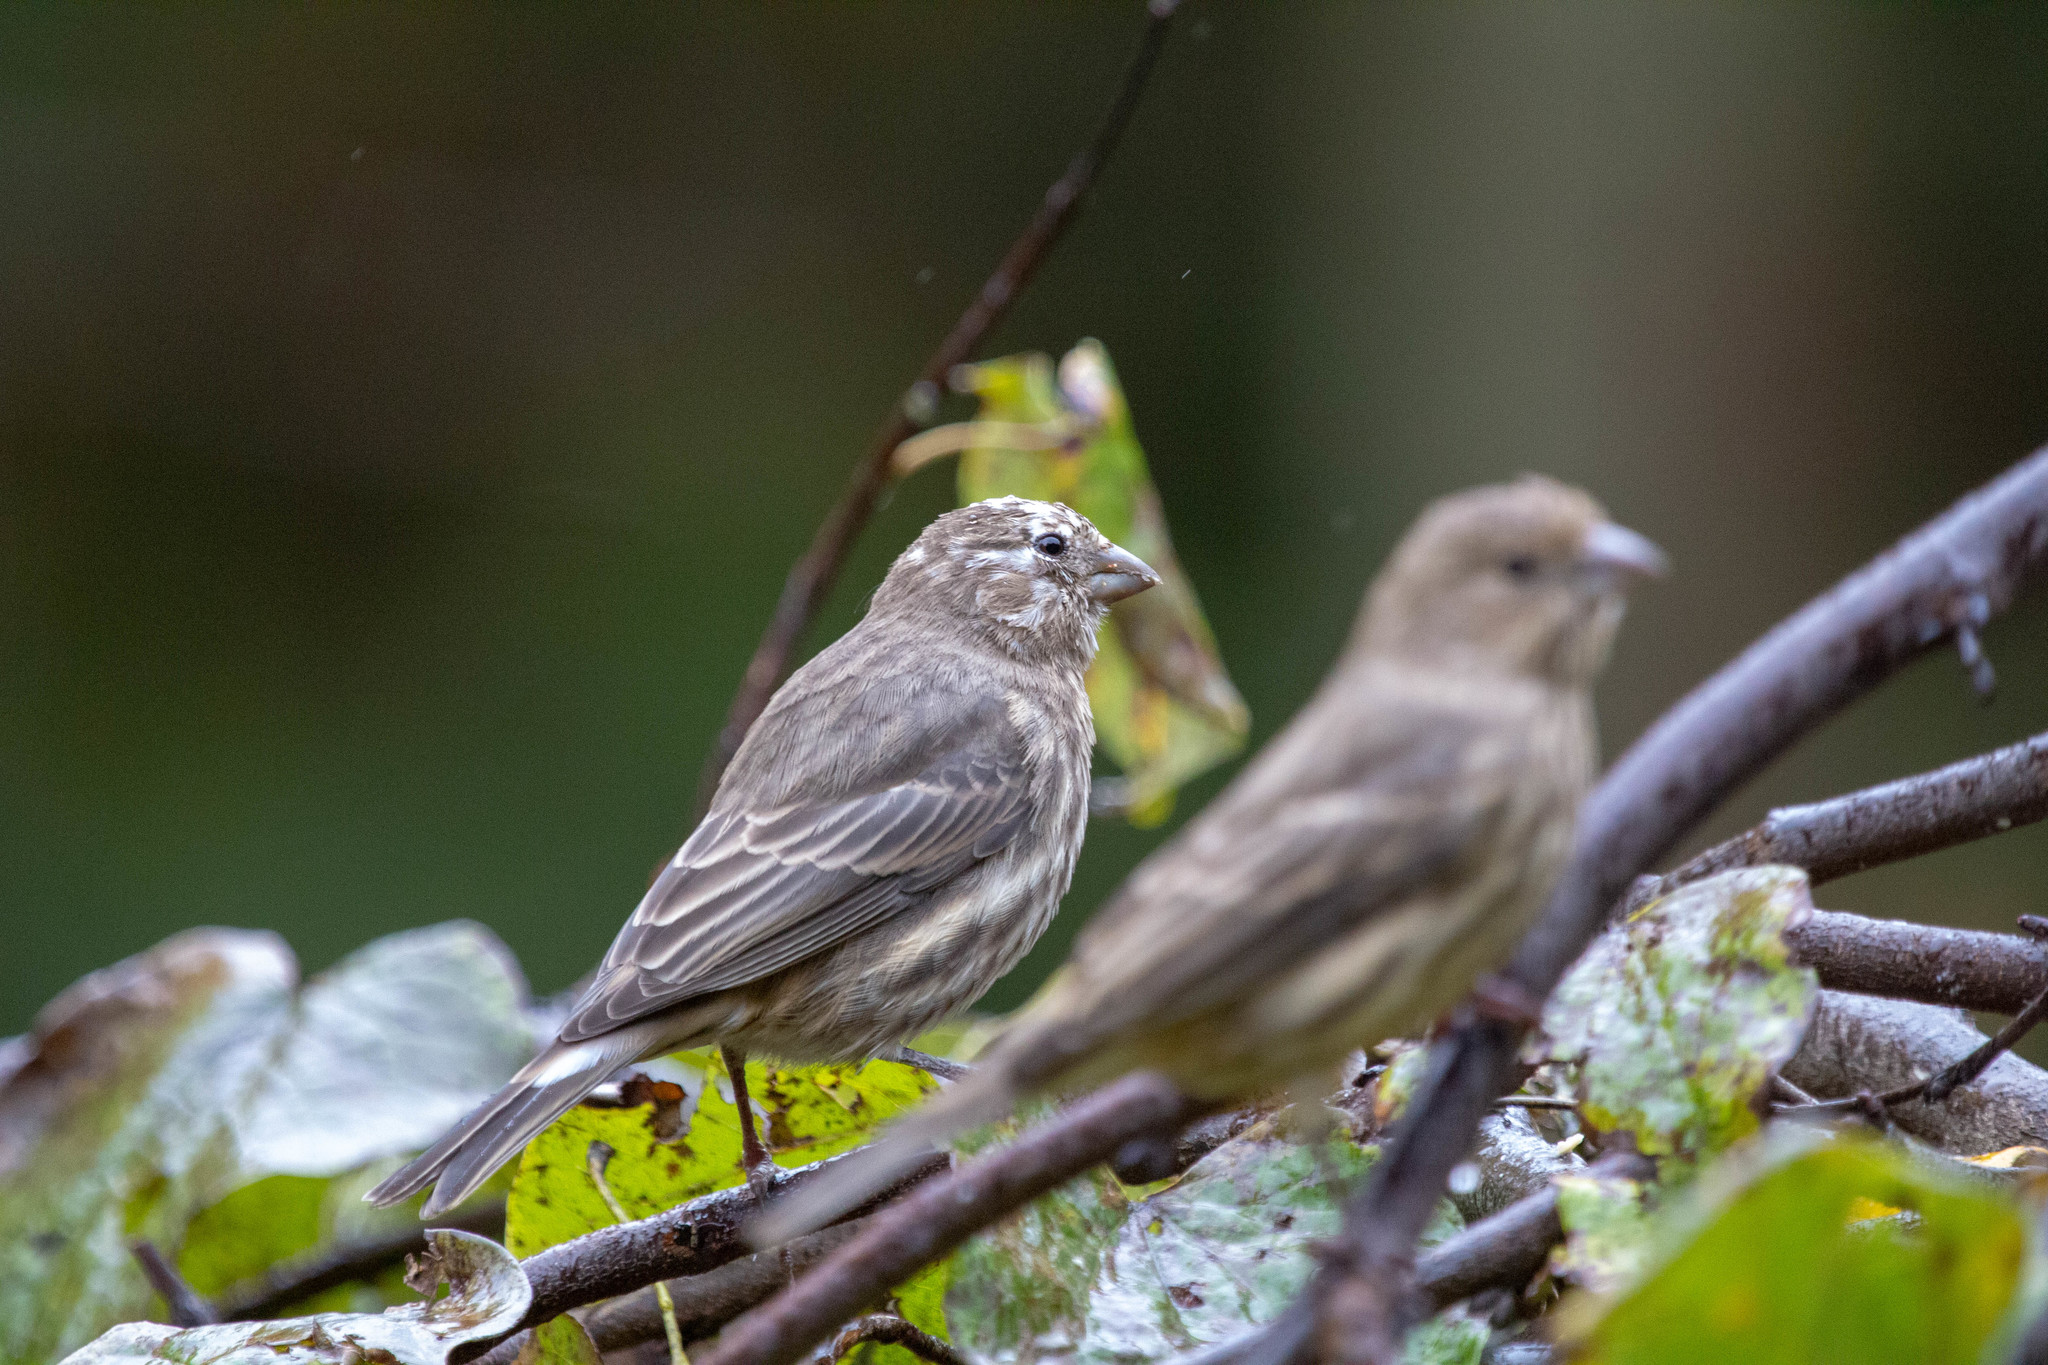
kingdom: Animalia
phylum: Chordata
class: Aves
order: Passeriformes
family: Fringillidae
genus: Haemorhous
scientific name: Haemorhous mexicanus
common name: House finch
